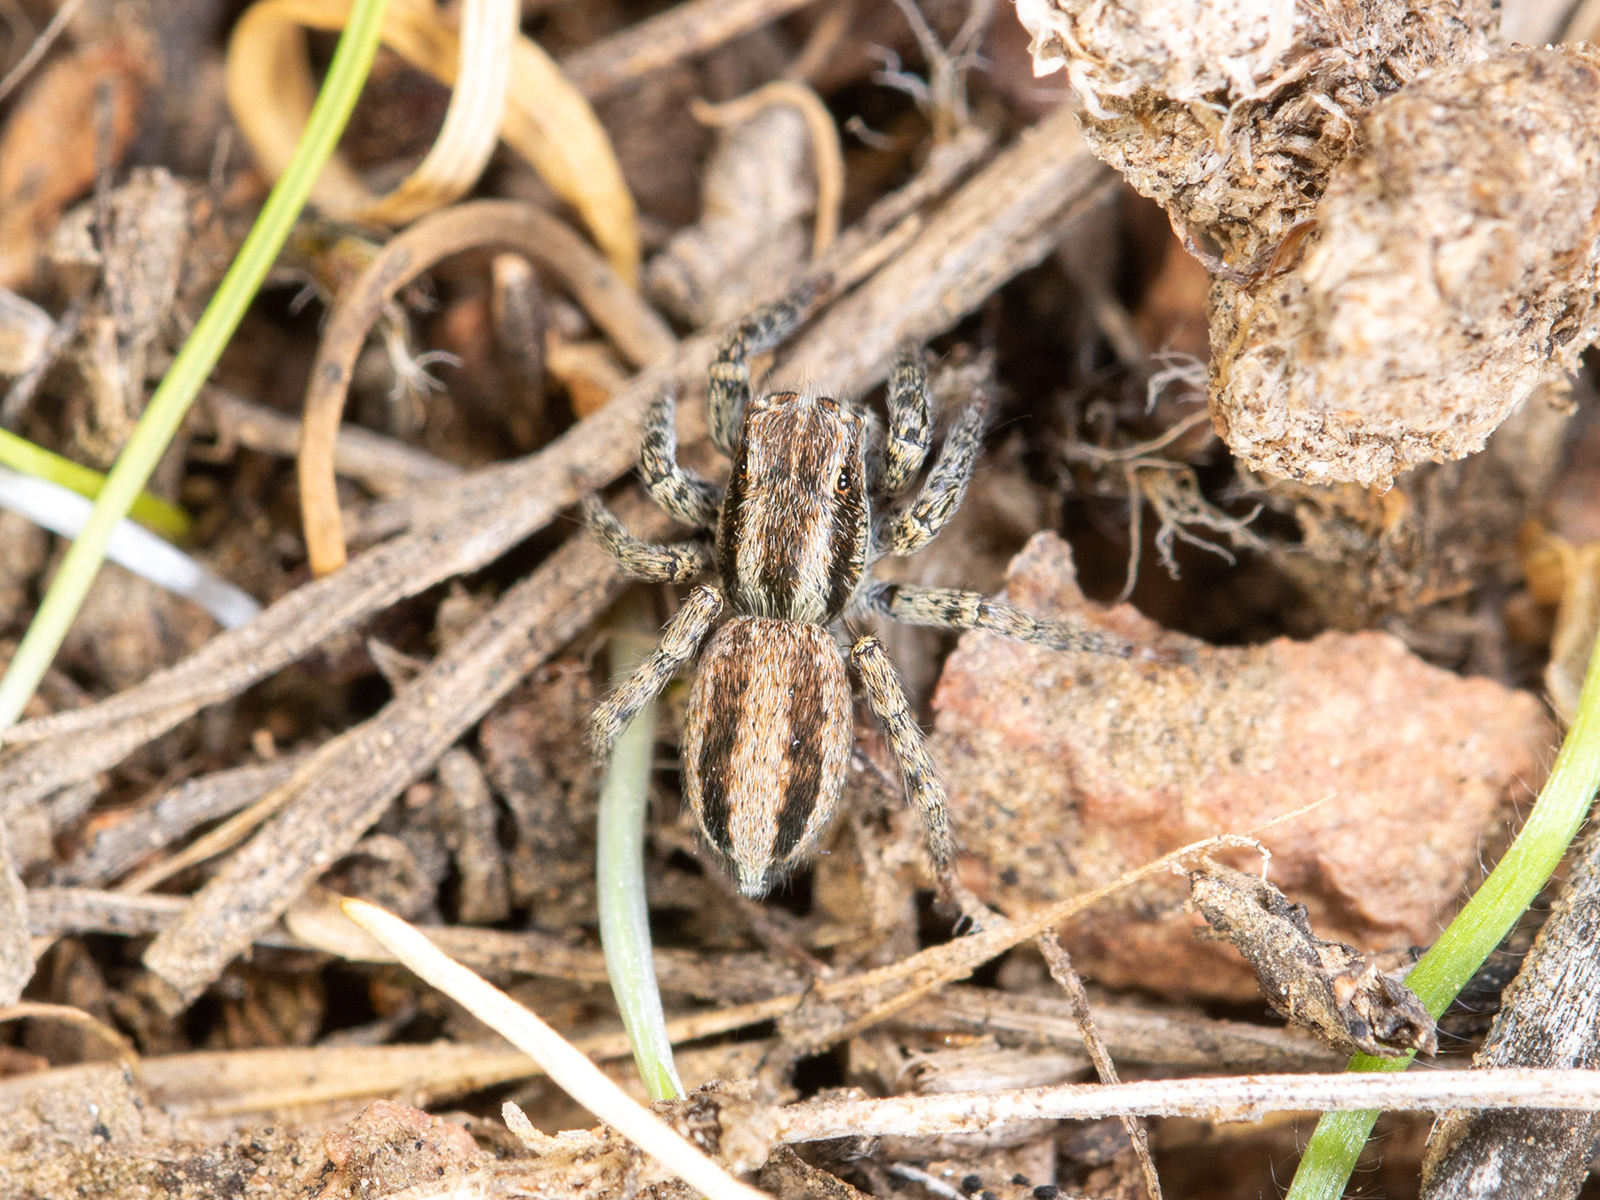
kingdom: Animalia
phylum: Arthropoda
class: Arachnida
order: Araneae
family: Salticidae
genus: Phlegra
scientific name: Phlegra andreevae
